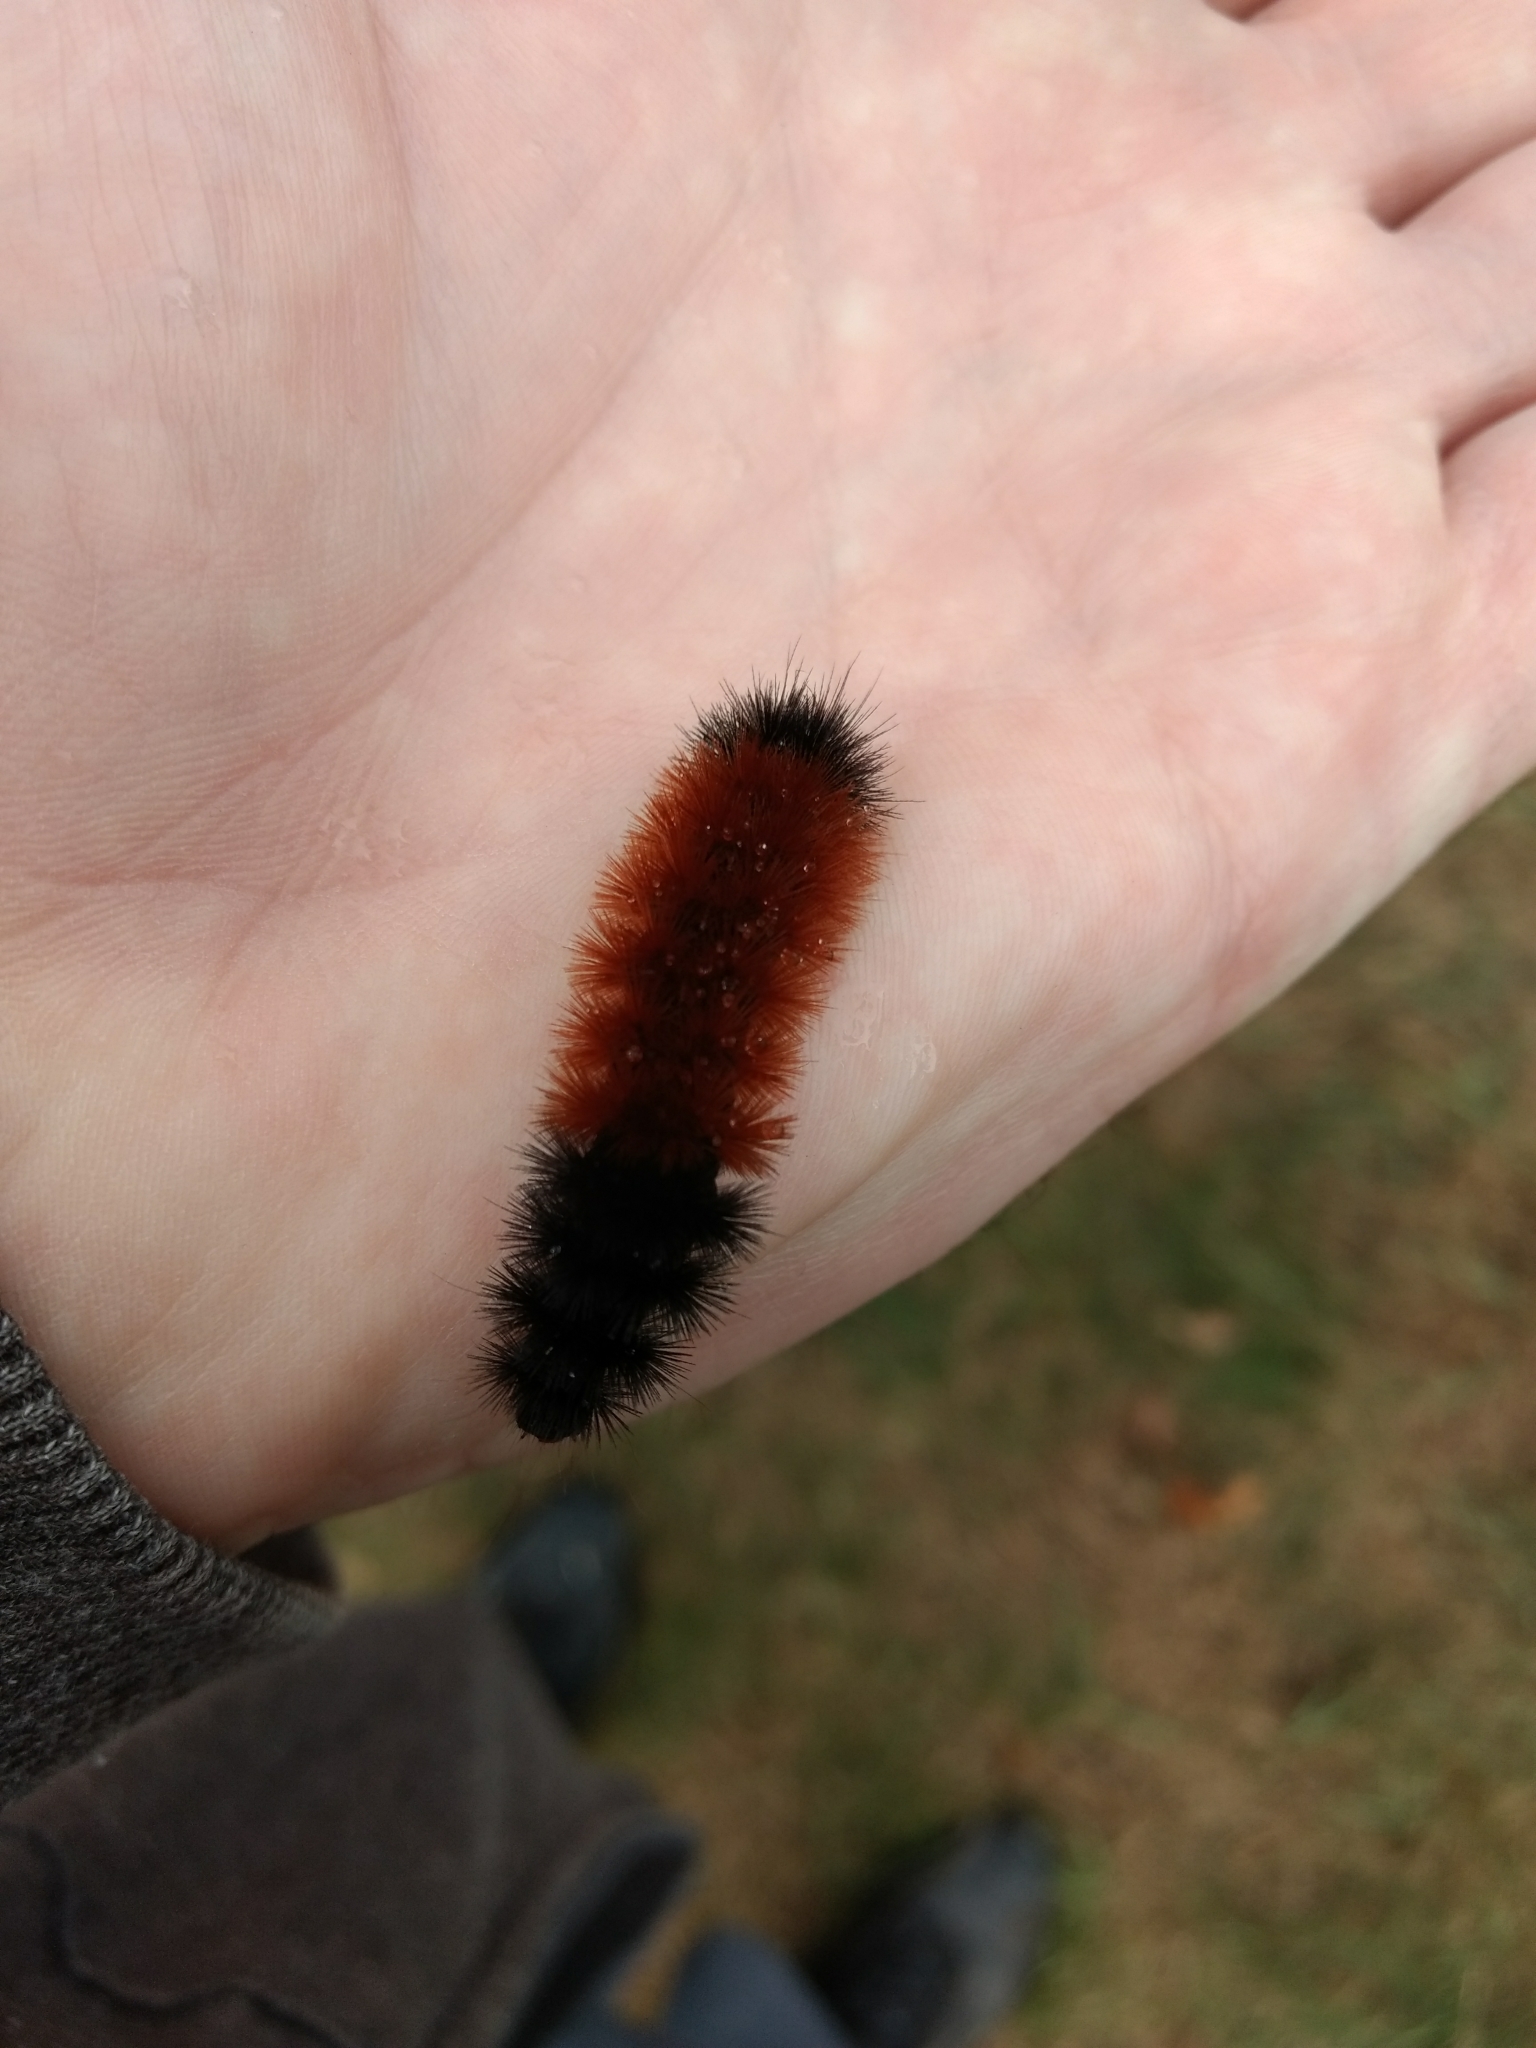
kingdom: Animalia
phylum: Arthropoda
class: Insecta
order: Lepidoptera
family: Erebidae
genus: Pyrrharctia
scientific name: Pyrrharctia isabella
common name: Isabella tiger moth
